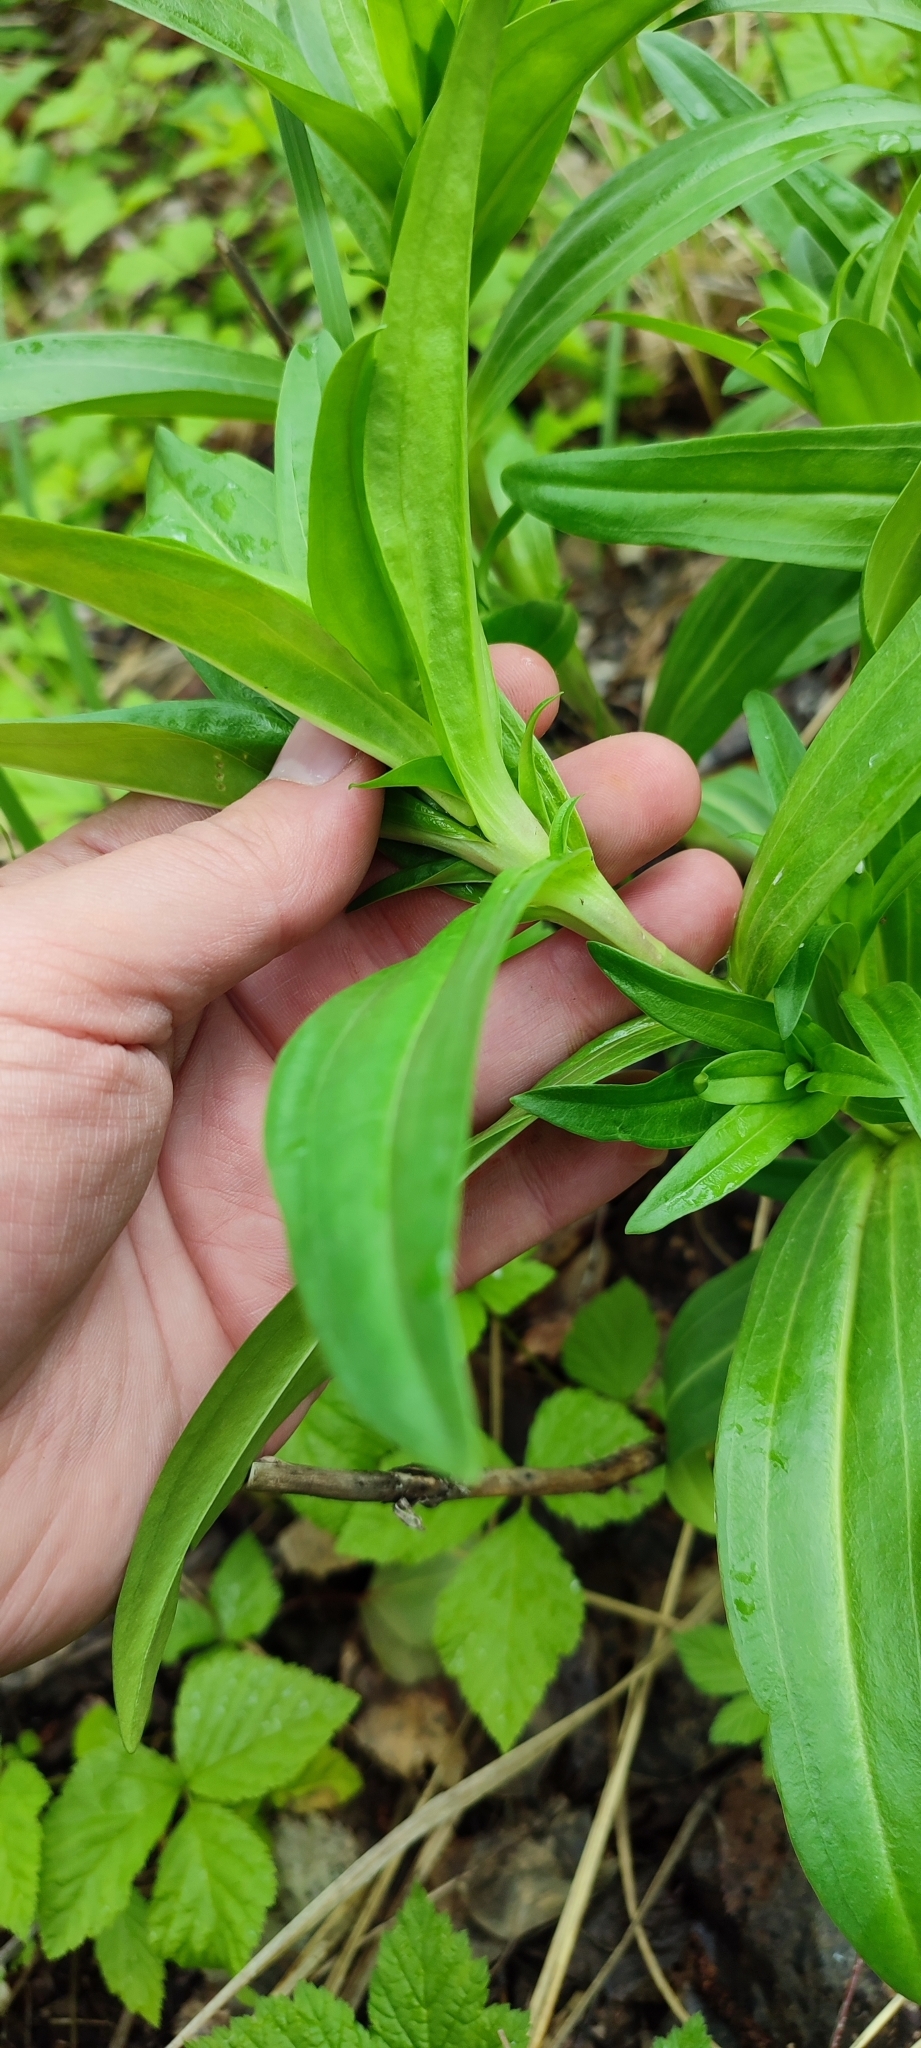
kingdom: Plantae
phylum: Tracheophyta
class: Magnoliopsida
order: Gentianales
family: Gentianaceae
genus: Gentiana
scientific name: Gentiana cruciata
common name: Cross gentian
